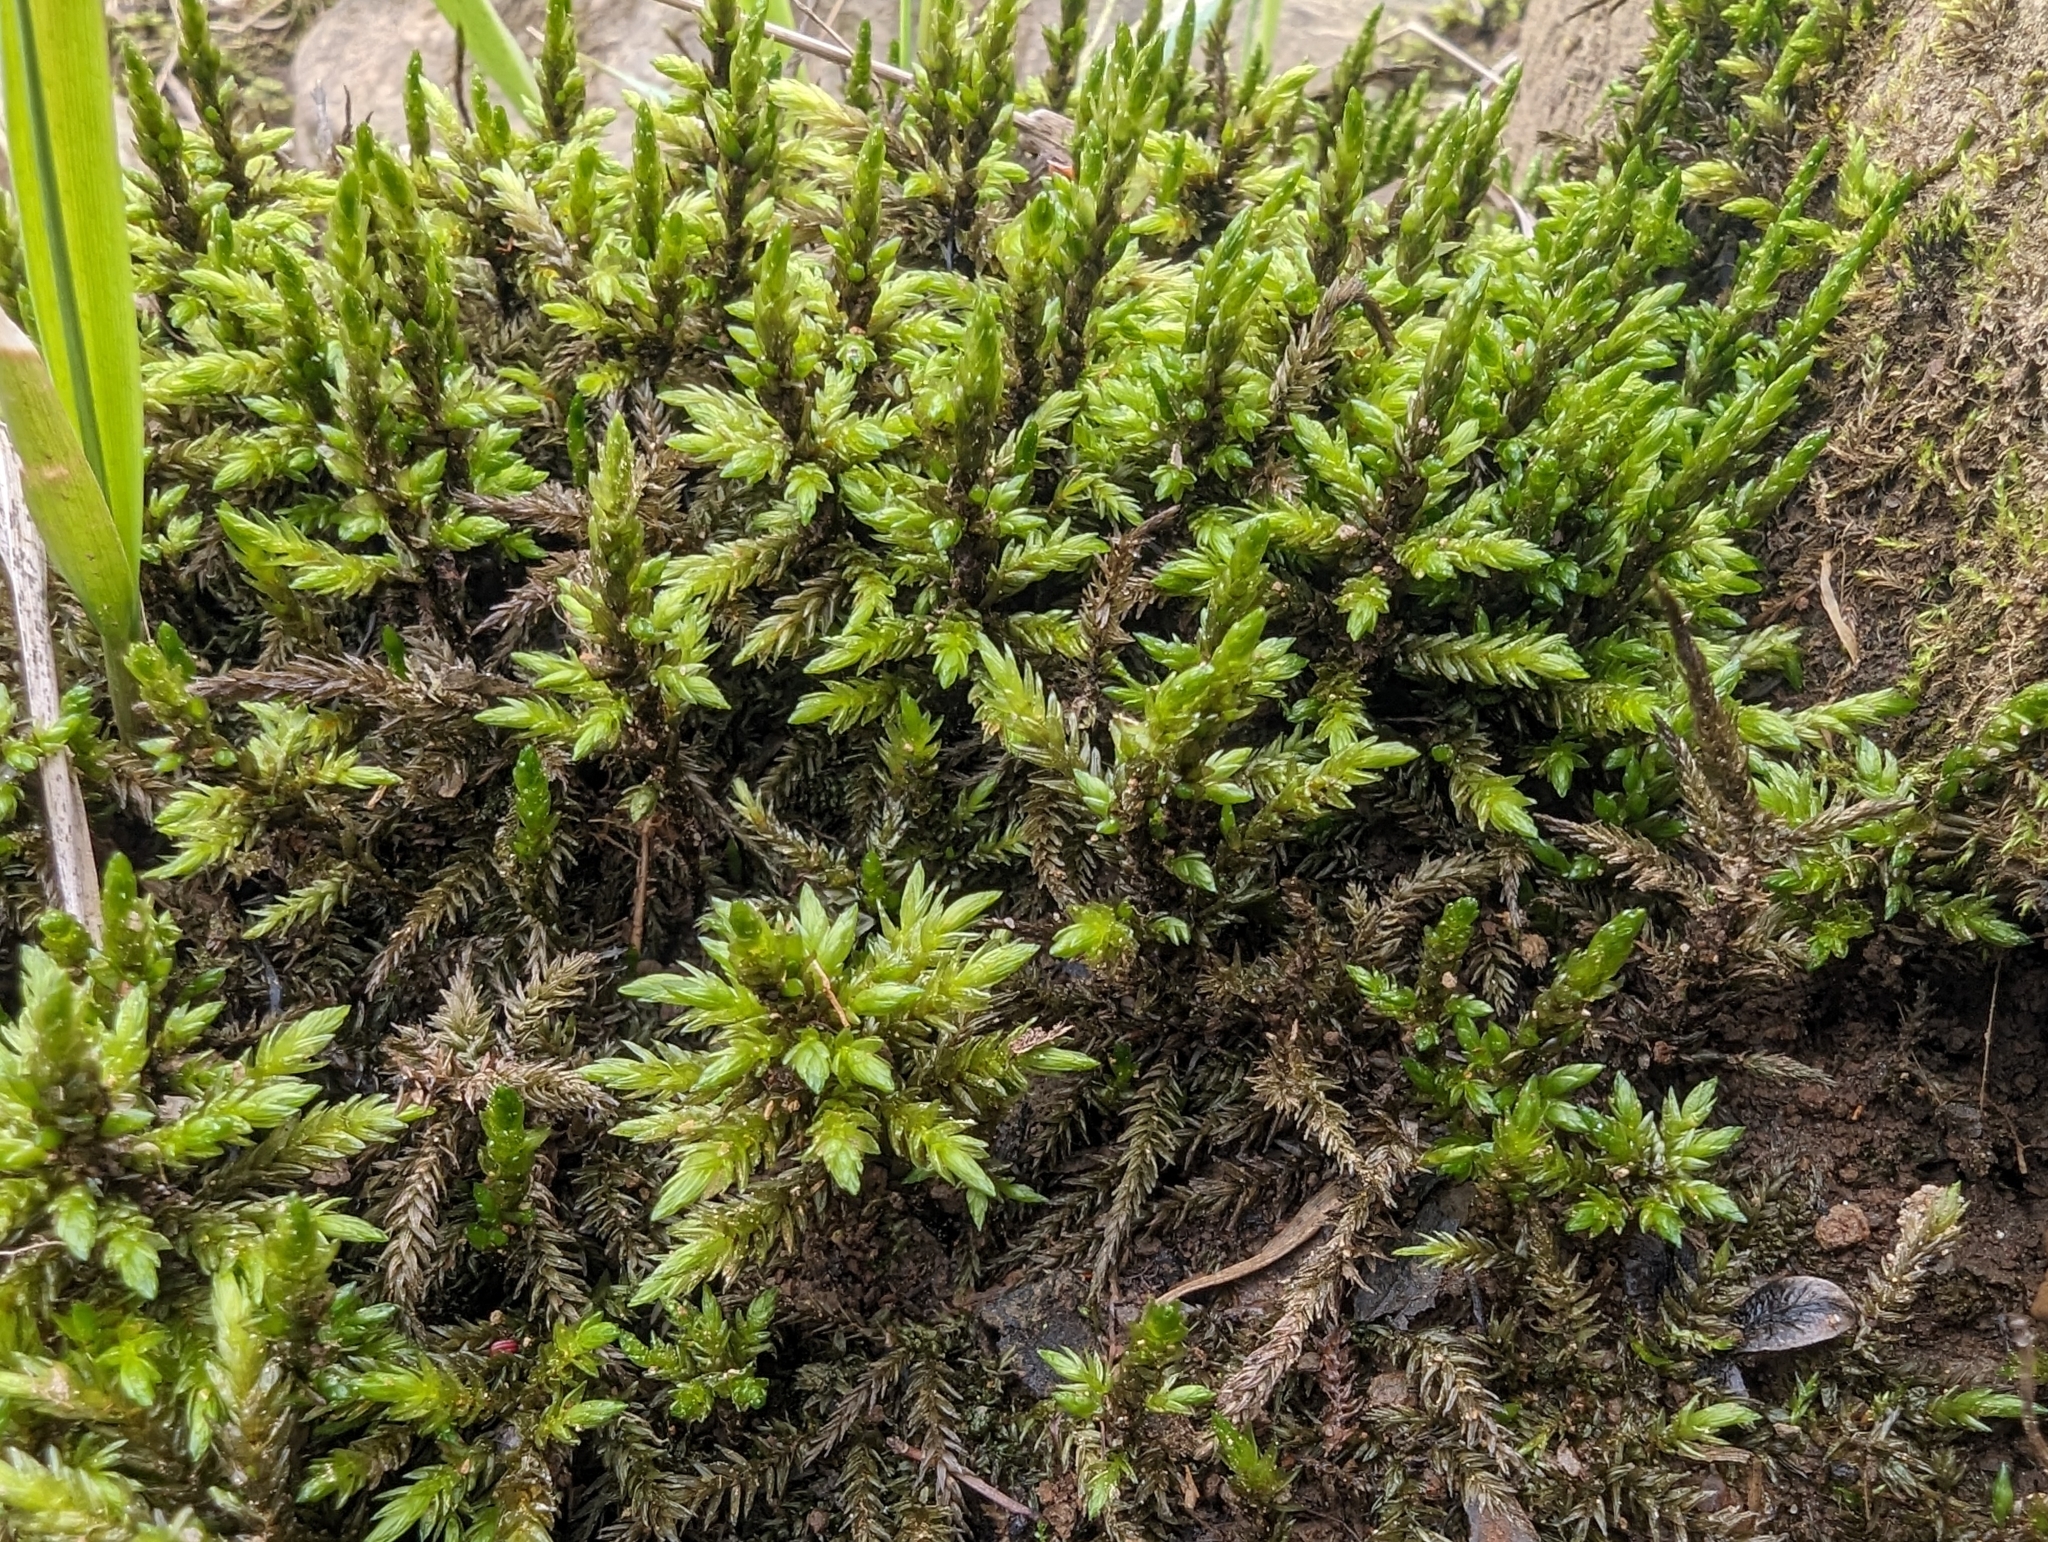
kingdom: Plantae
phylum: Bryophyta
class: Bryopsida
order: Hypnales
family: Climaciaceae
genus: Climacium
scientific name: Climacium dendroides
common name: Northern tree moss
